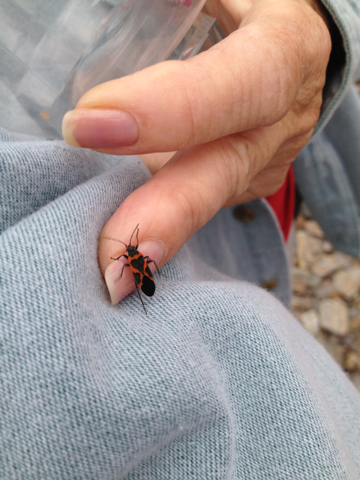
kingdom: Animalia
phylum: Arthropoda
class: Insecta
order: Hemiptera
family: Lygaeidae
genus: Lygaeus
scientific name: Lygaeus kalmii
